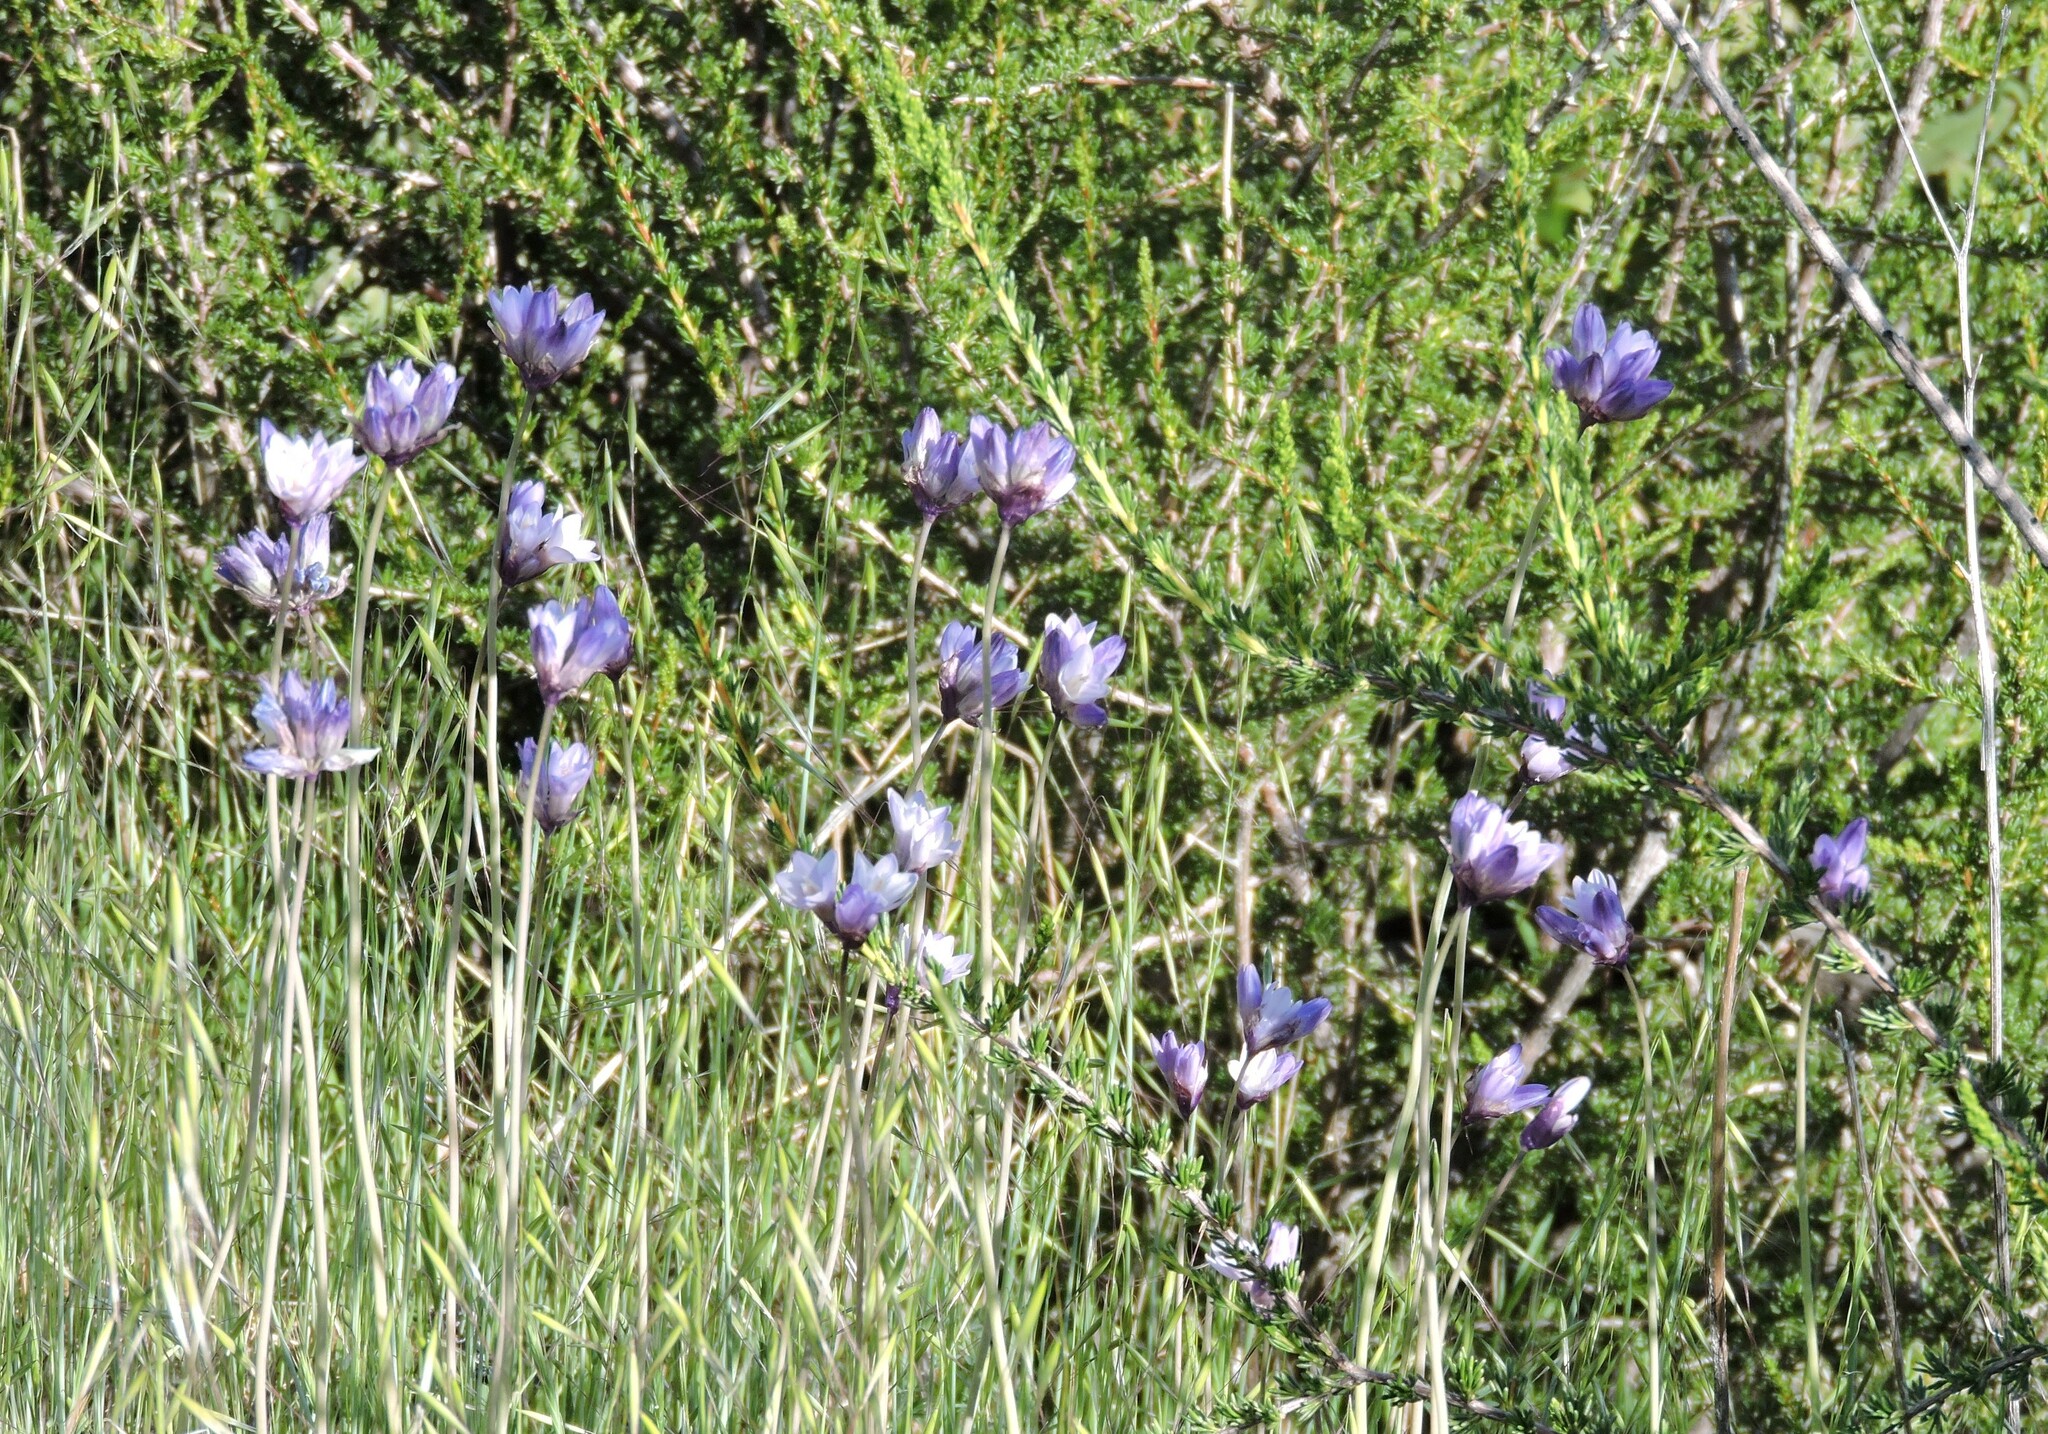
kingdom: Plantae
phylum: Tracheophyta
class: Liliopsida
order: Asparagales
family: Asparagaceae
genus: Dipterostemon
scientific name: Dipterostemon capitatus
